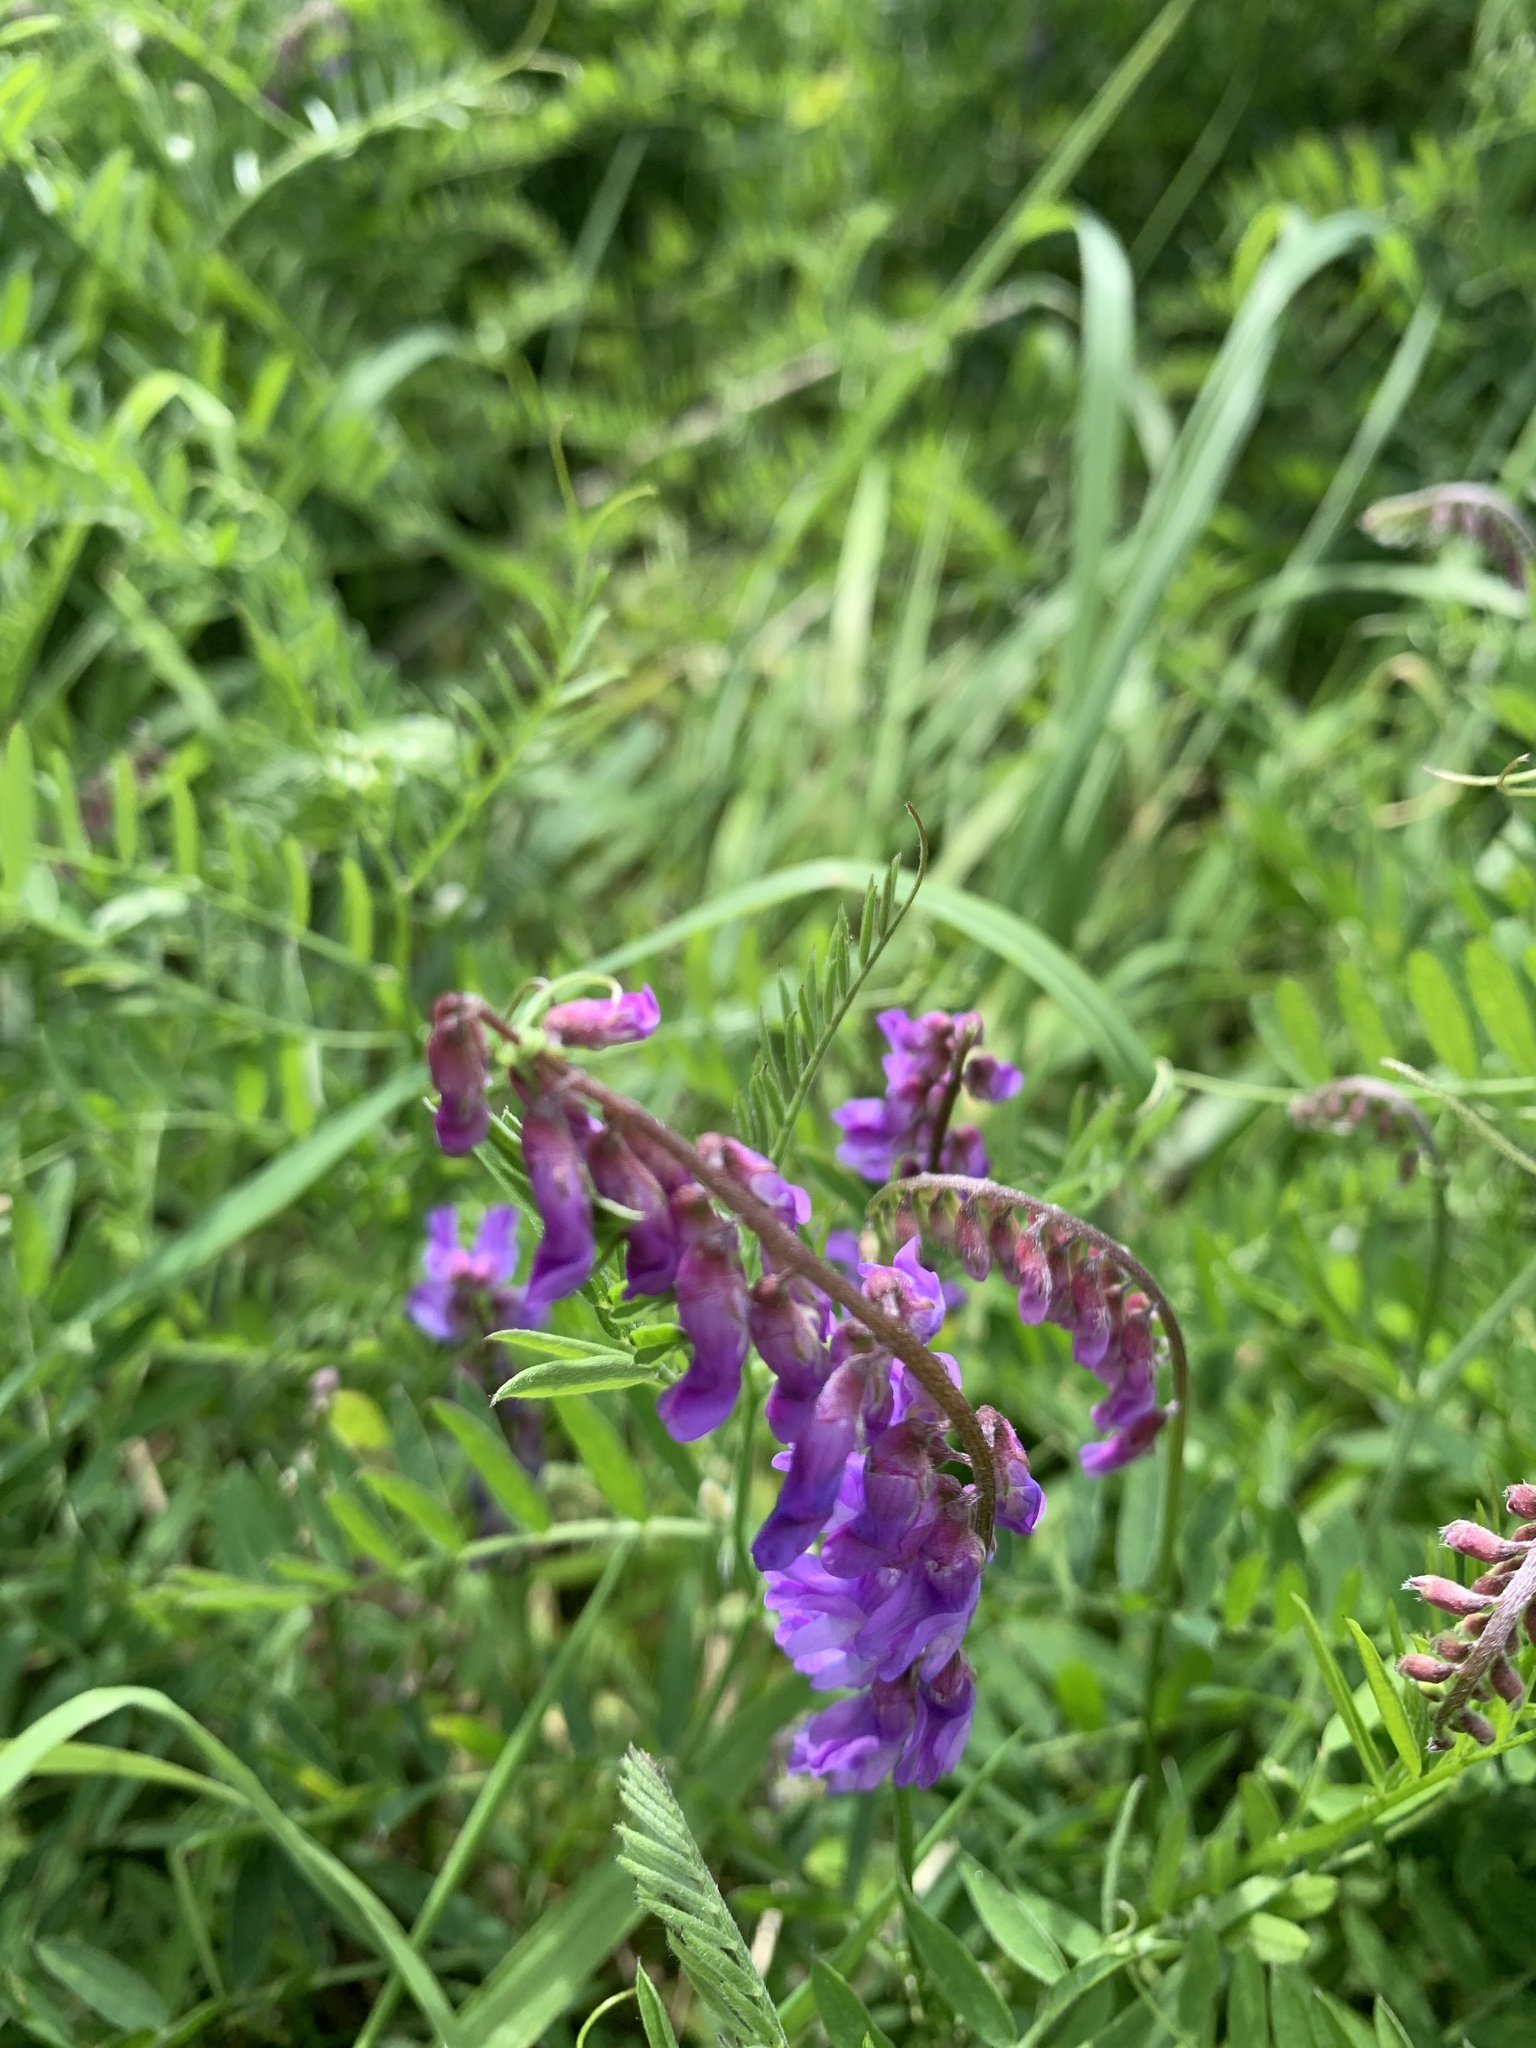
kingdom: Plantae
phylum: Tracheophyta
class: Magnoliopsida
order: Fabales
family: Fabaceae
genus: Vicia
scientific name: Vicia cracca
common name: Bird vetch
